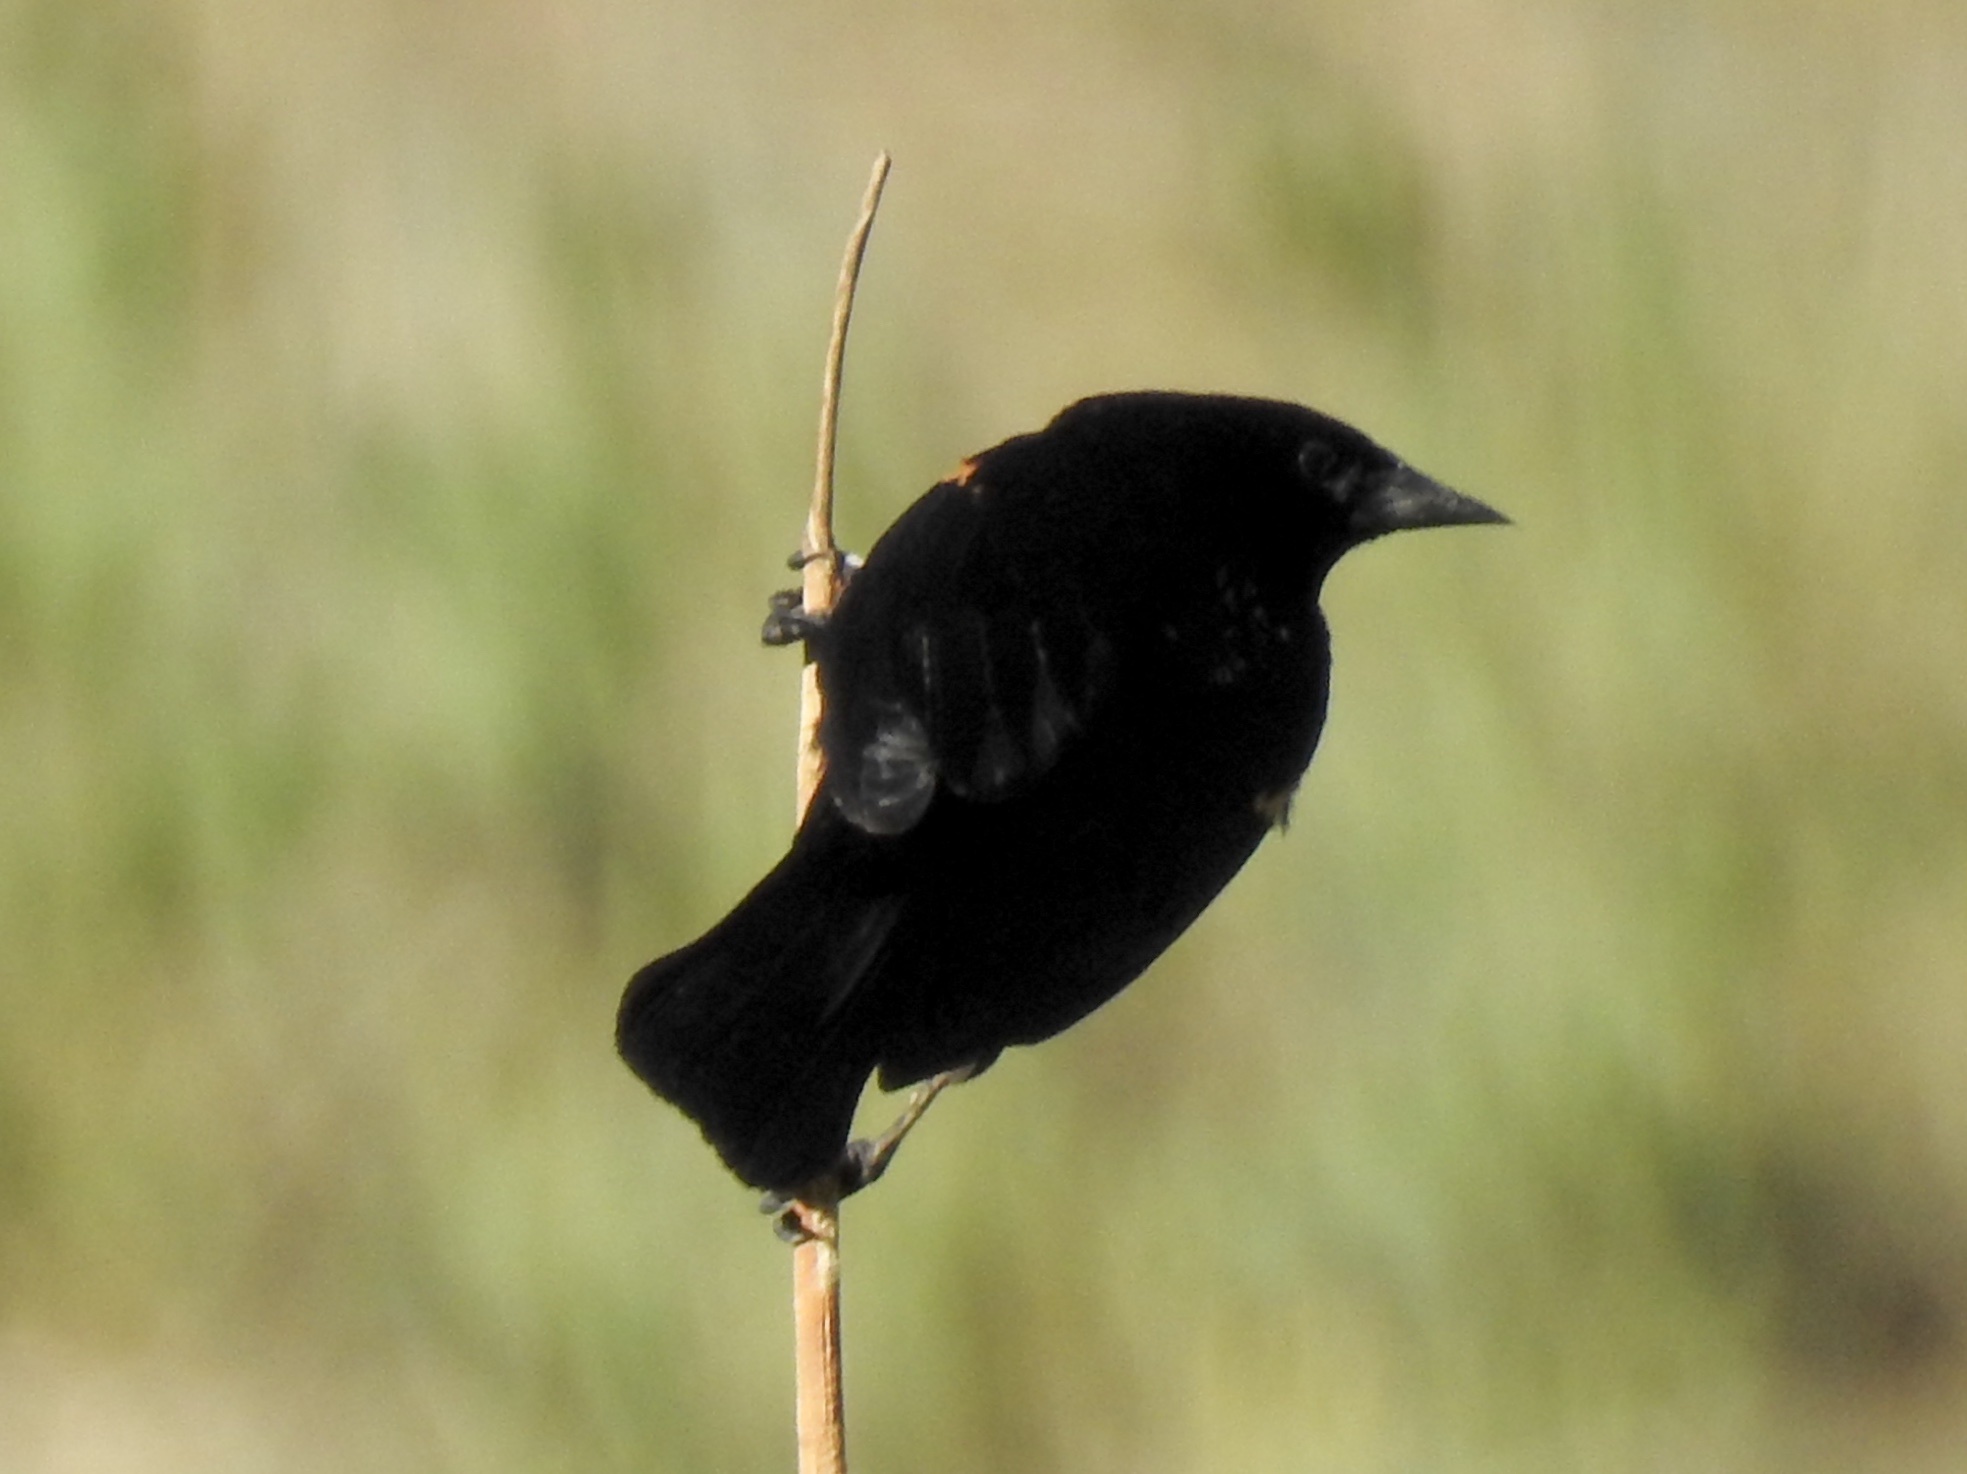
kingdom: Animalia
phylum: Chordata
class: Aves
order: Passeriformes
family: Icteridae
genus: Agelaius
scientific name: Agelaius phoeniceus
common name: Red-winged blackbird
